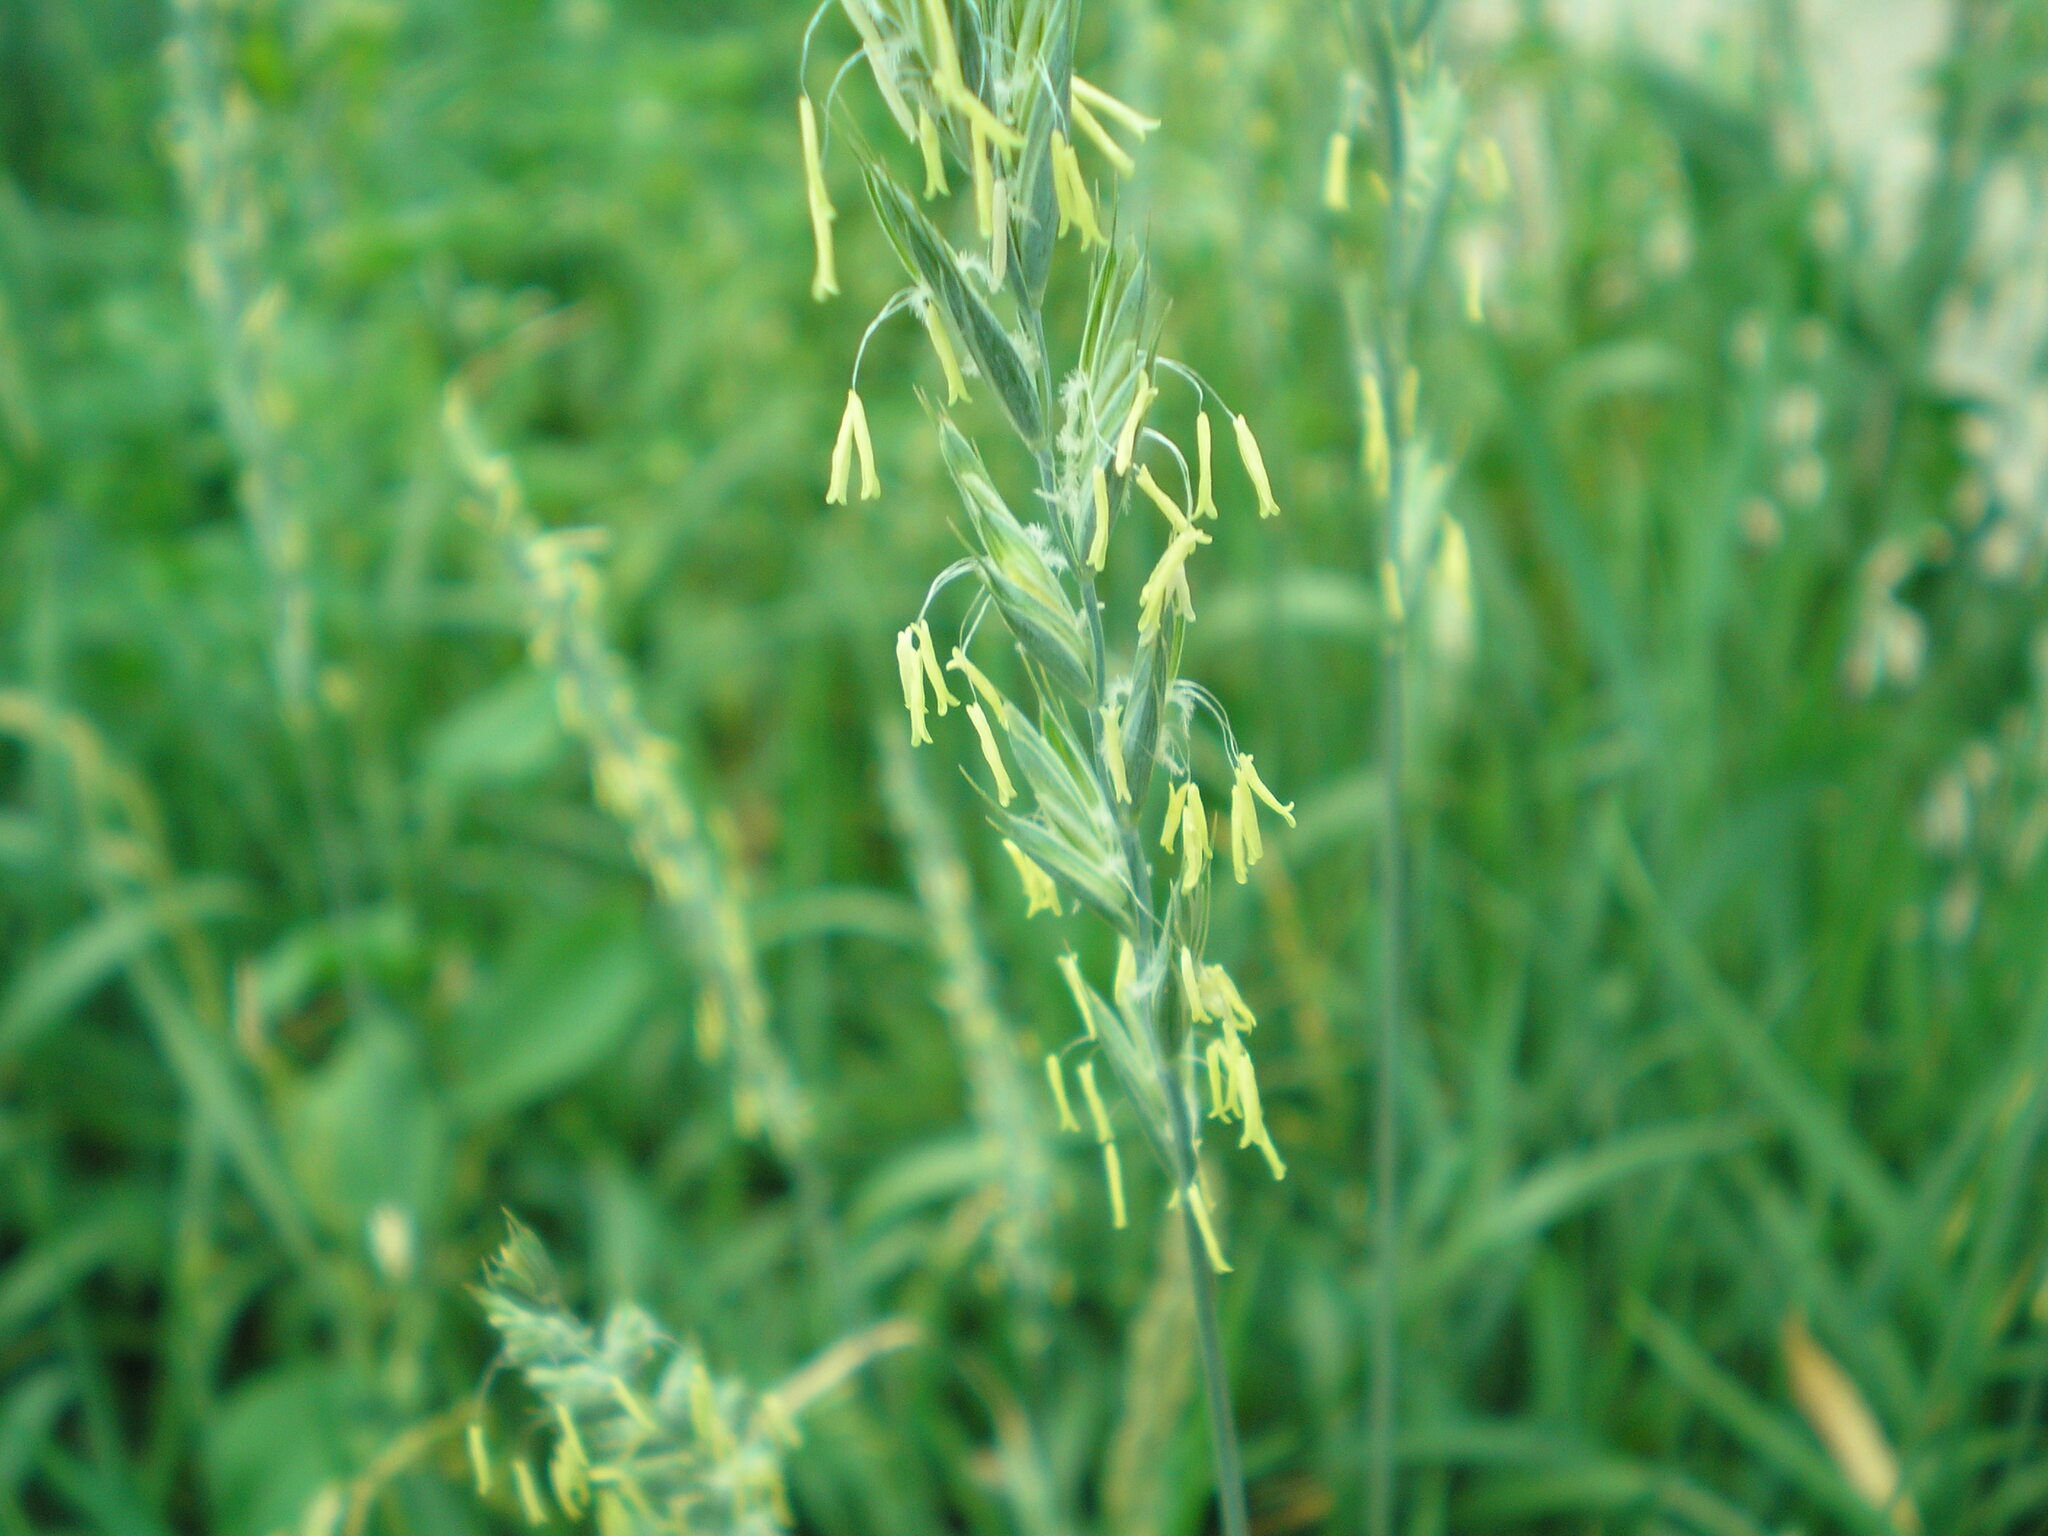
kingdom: Plantae
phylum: Tracheophyta
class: Liliopsida
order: Poales
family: Poaceae
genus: Elymus
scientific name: Elymus repens
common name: Quackgrass
